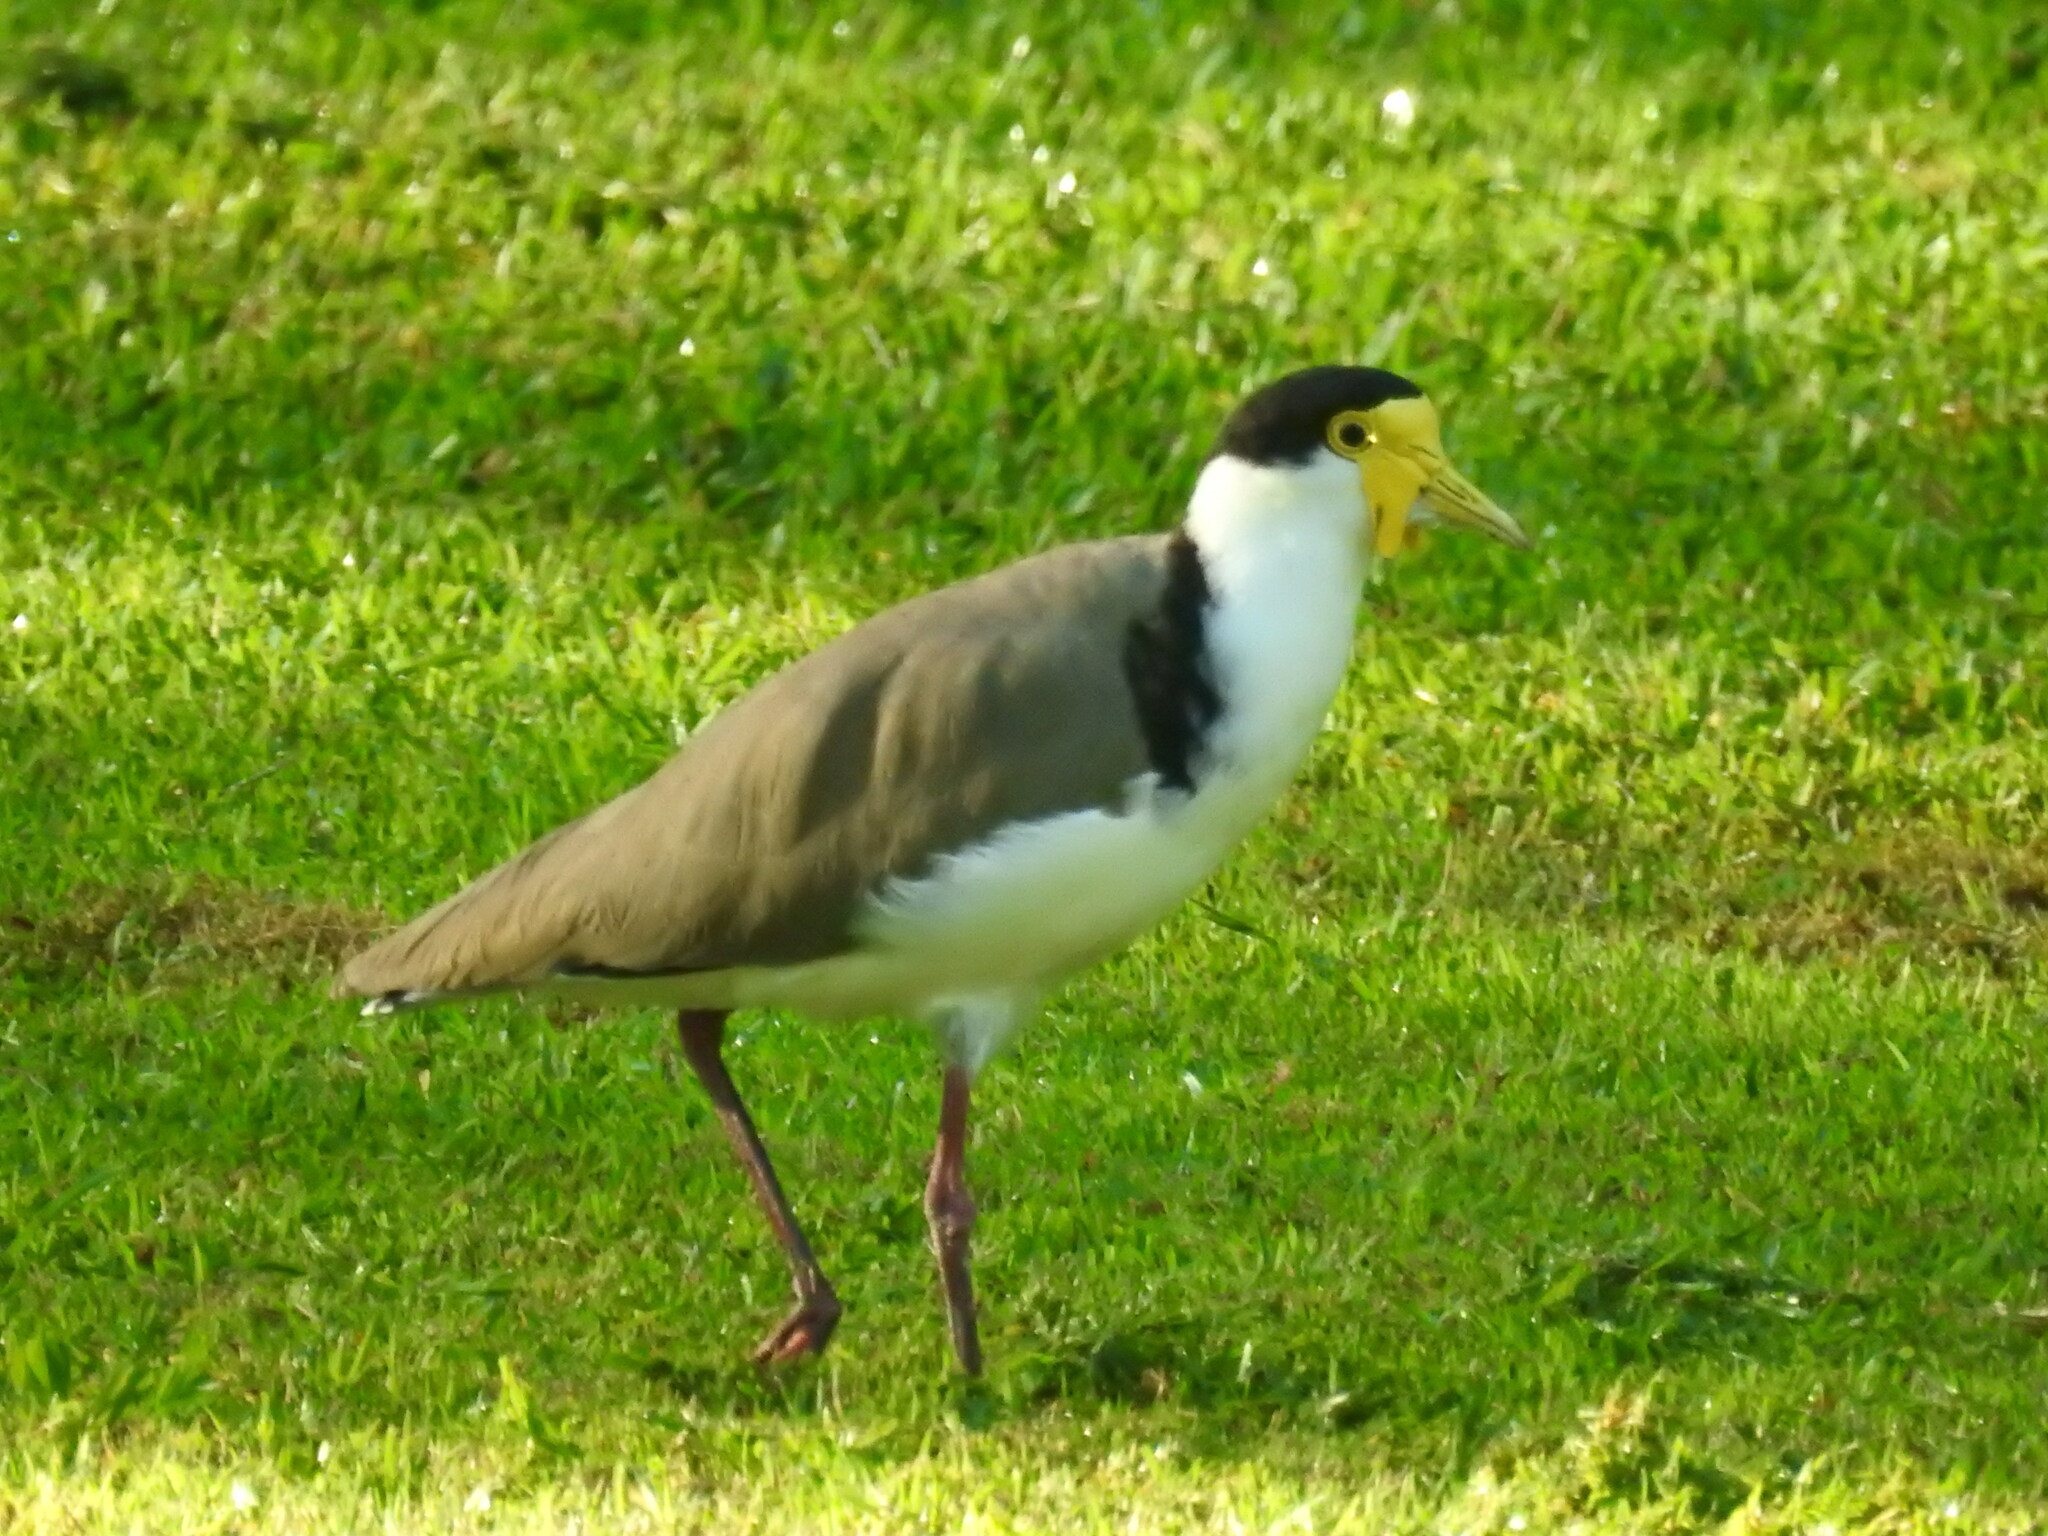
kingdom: Animalia
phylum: Chordata
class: Aves
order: Charadriiformes
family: Charadriidae
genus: Vanellus
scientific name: Vanellus miles
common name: Masked lapwing
